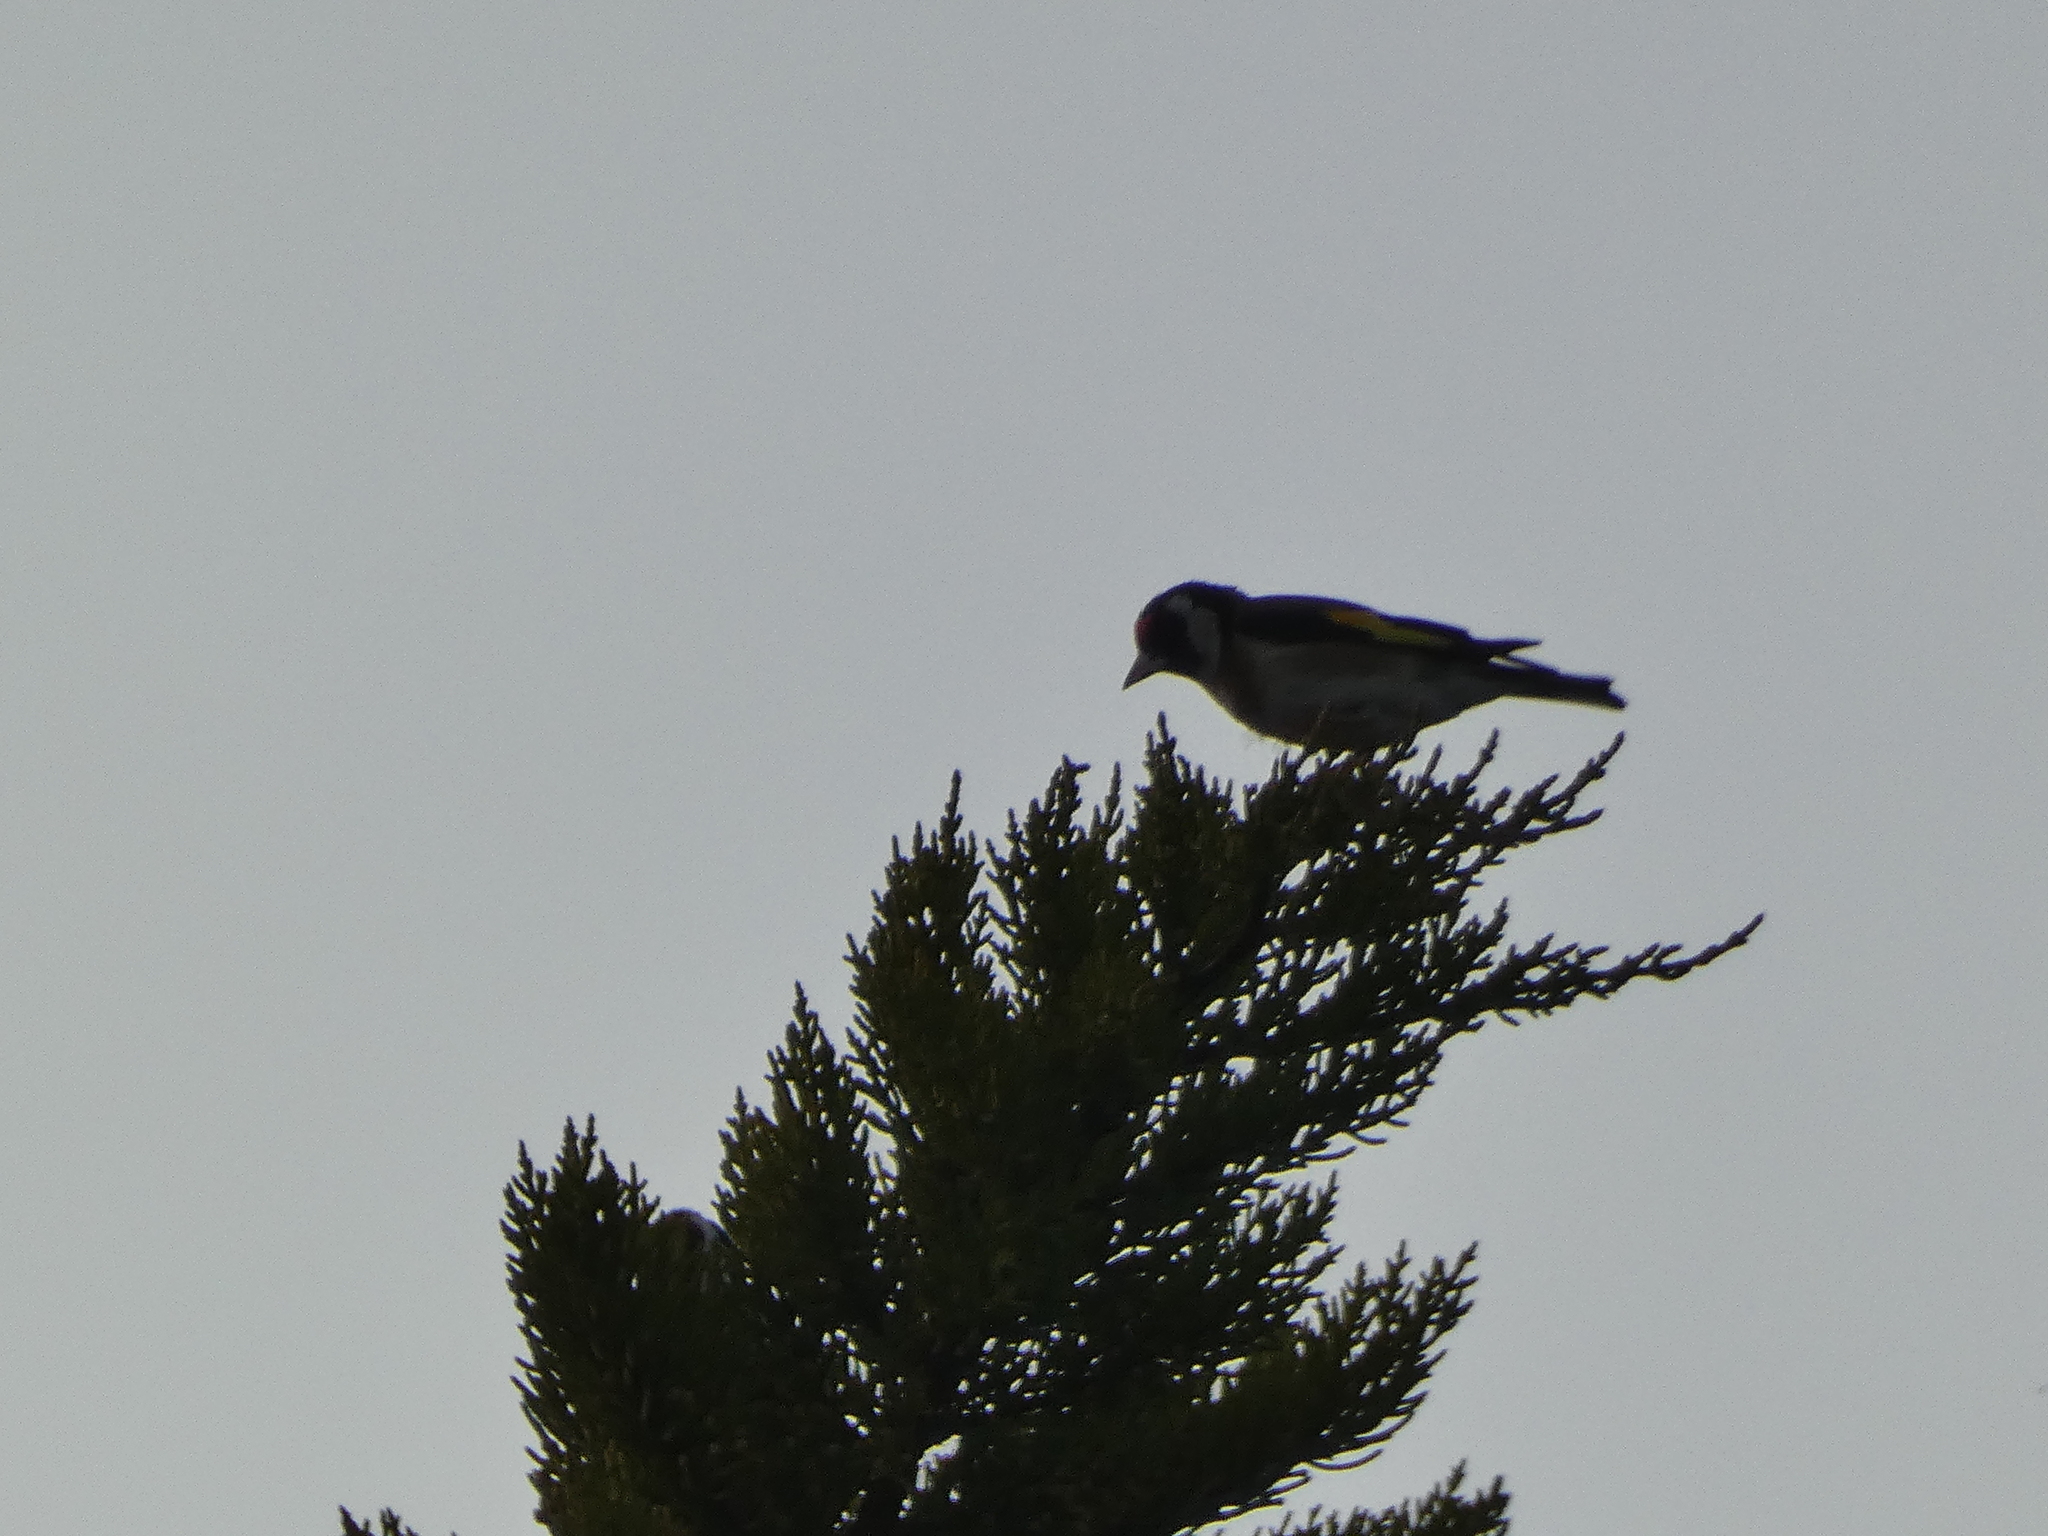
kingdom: Animalia
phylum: Chordata
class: Aves
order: Passeriformes
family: Fringillidae
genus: Carduelis
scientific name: Carduelis carduelis
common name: European goldfinch
